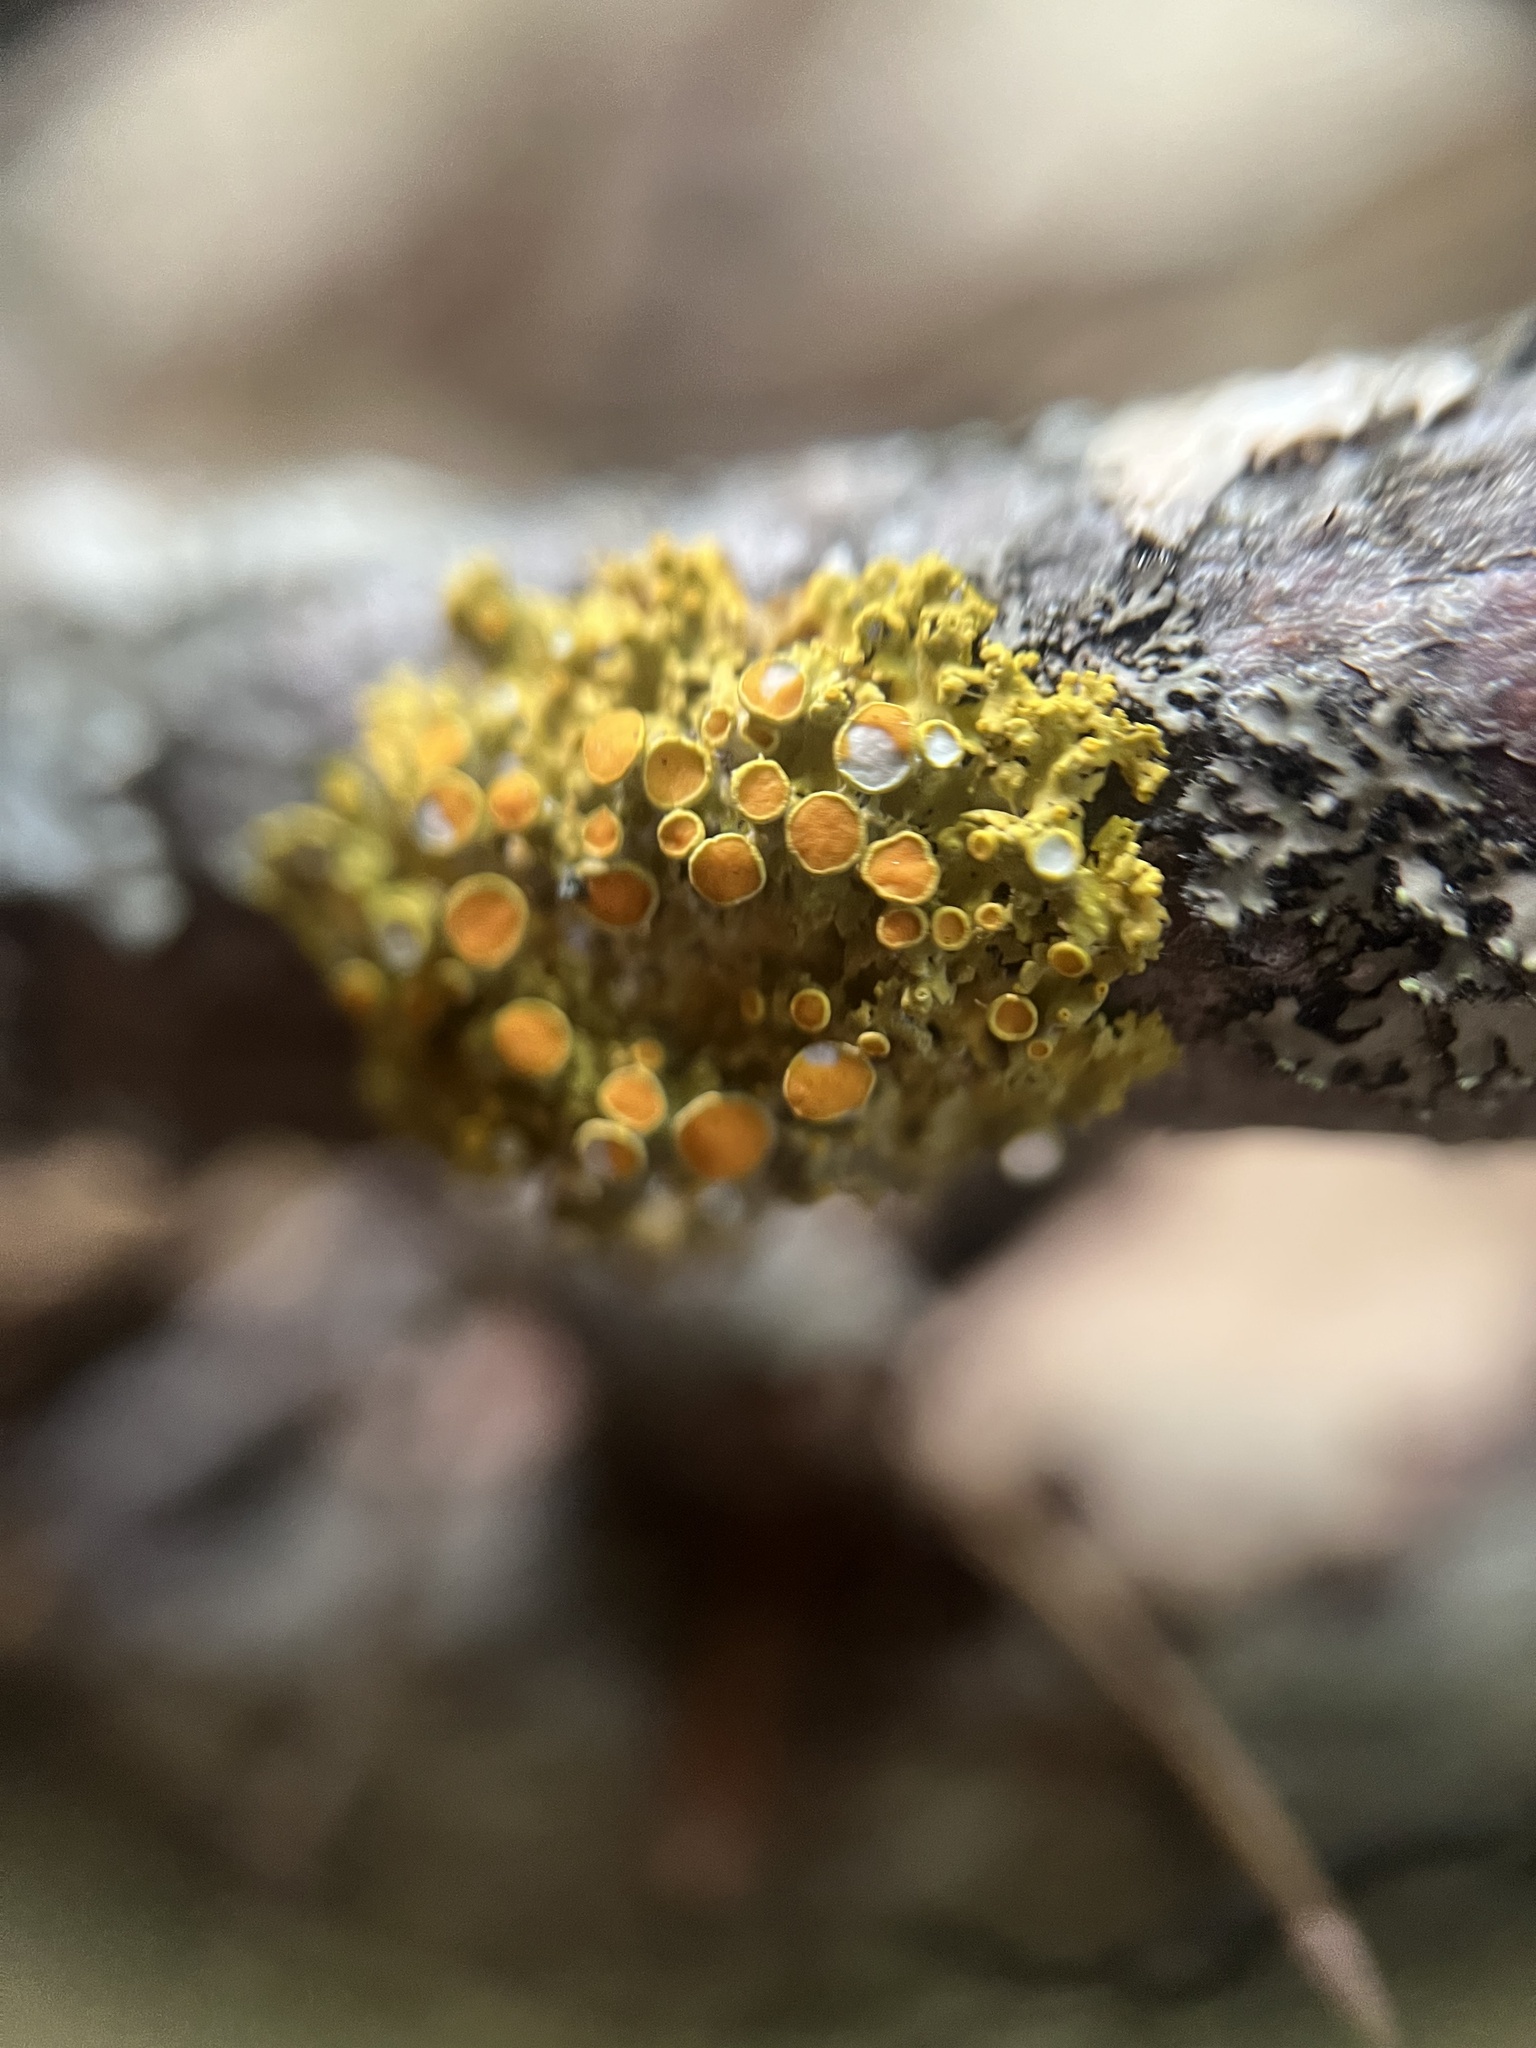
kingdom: Fungi
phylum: Ascomycota
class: Lecanoromycetes
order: Teloschistales
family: Teloschistaceae
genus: Gallowayella
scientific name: Gallowayella hasseana
